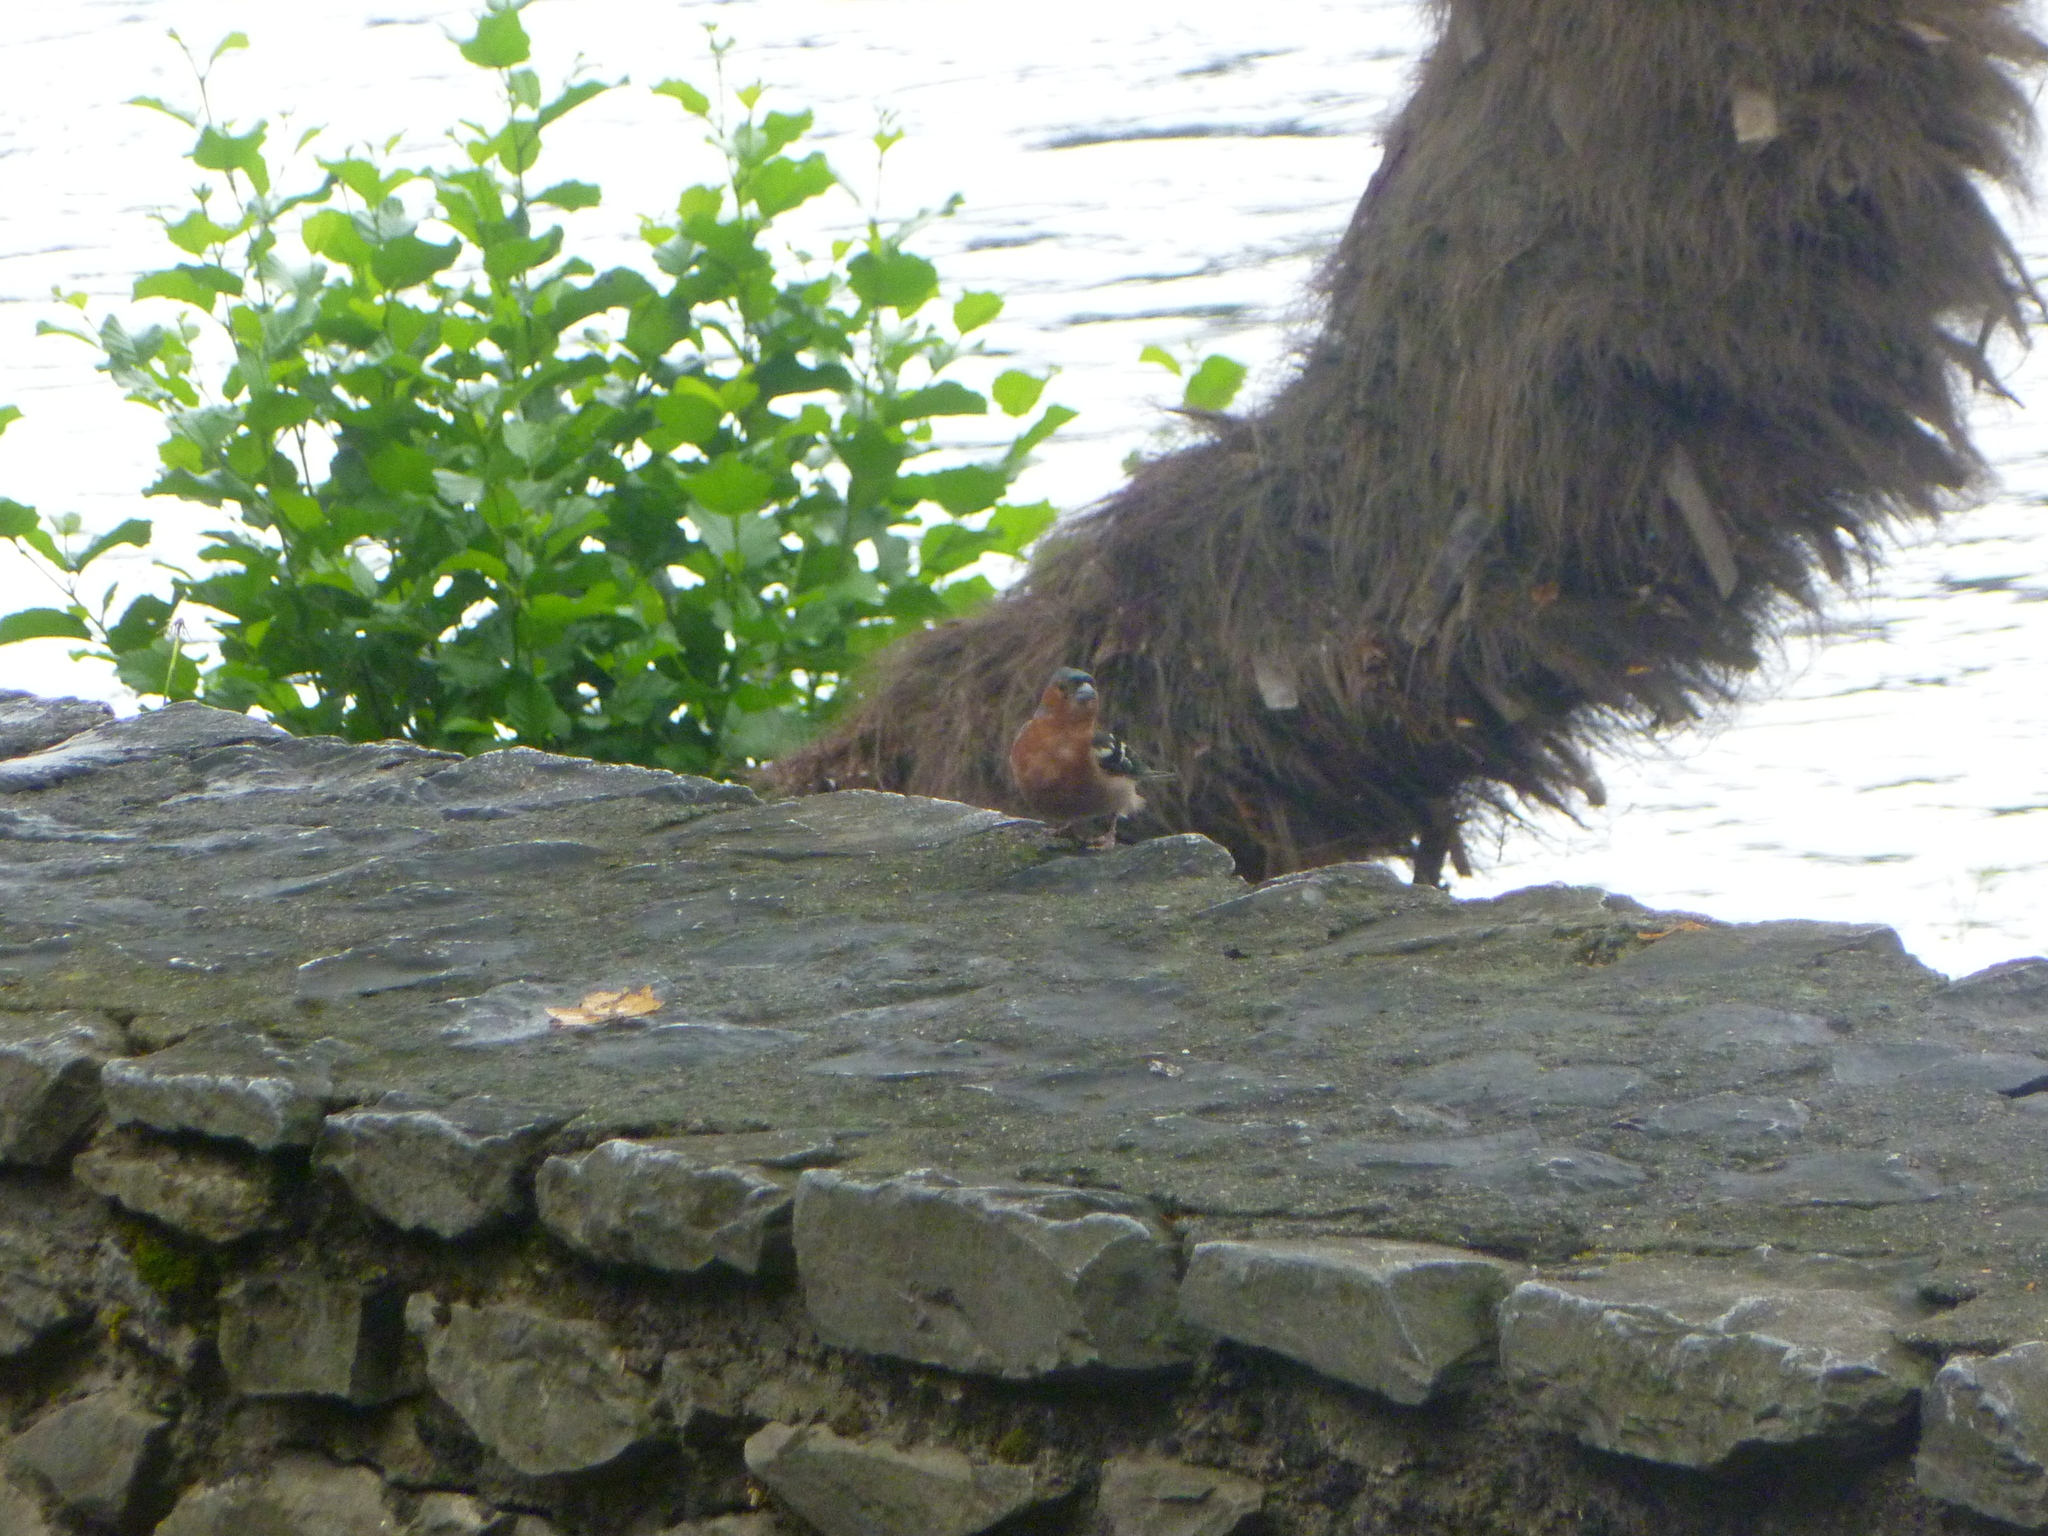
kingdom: Animalia
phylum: Chordata
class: Aves
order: Passeriformes
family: Fringillidae
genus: Fringilla
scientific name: Fringilla coelebs
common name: Common chaffinch
